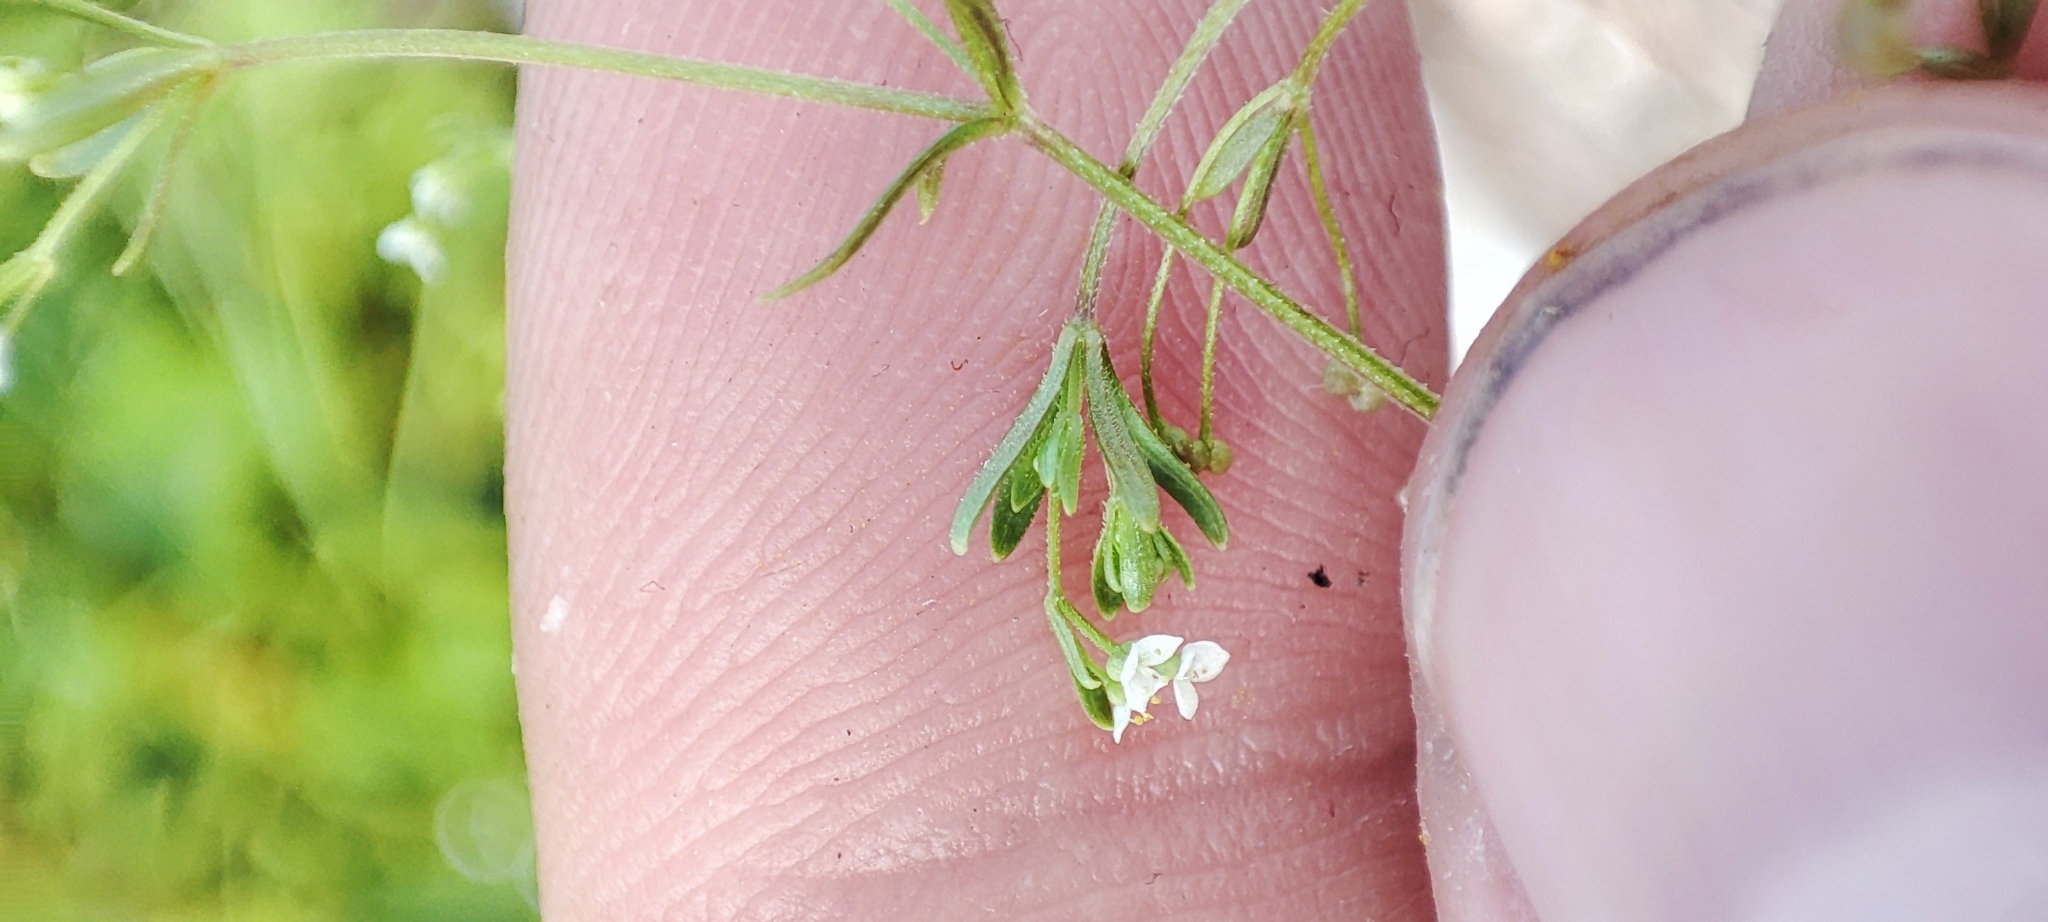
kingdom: Plantae
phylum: Tracheophyta
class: Magnoliopsida
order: Gentianales
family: Rubiaceae
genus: Galium
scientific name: Galium trifidum
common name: Small bedstraw
